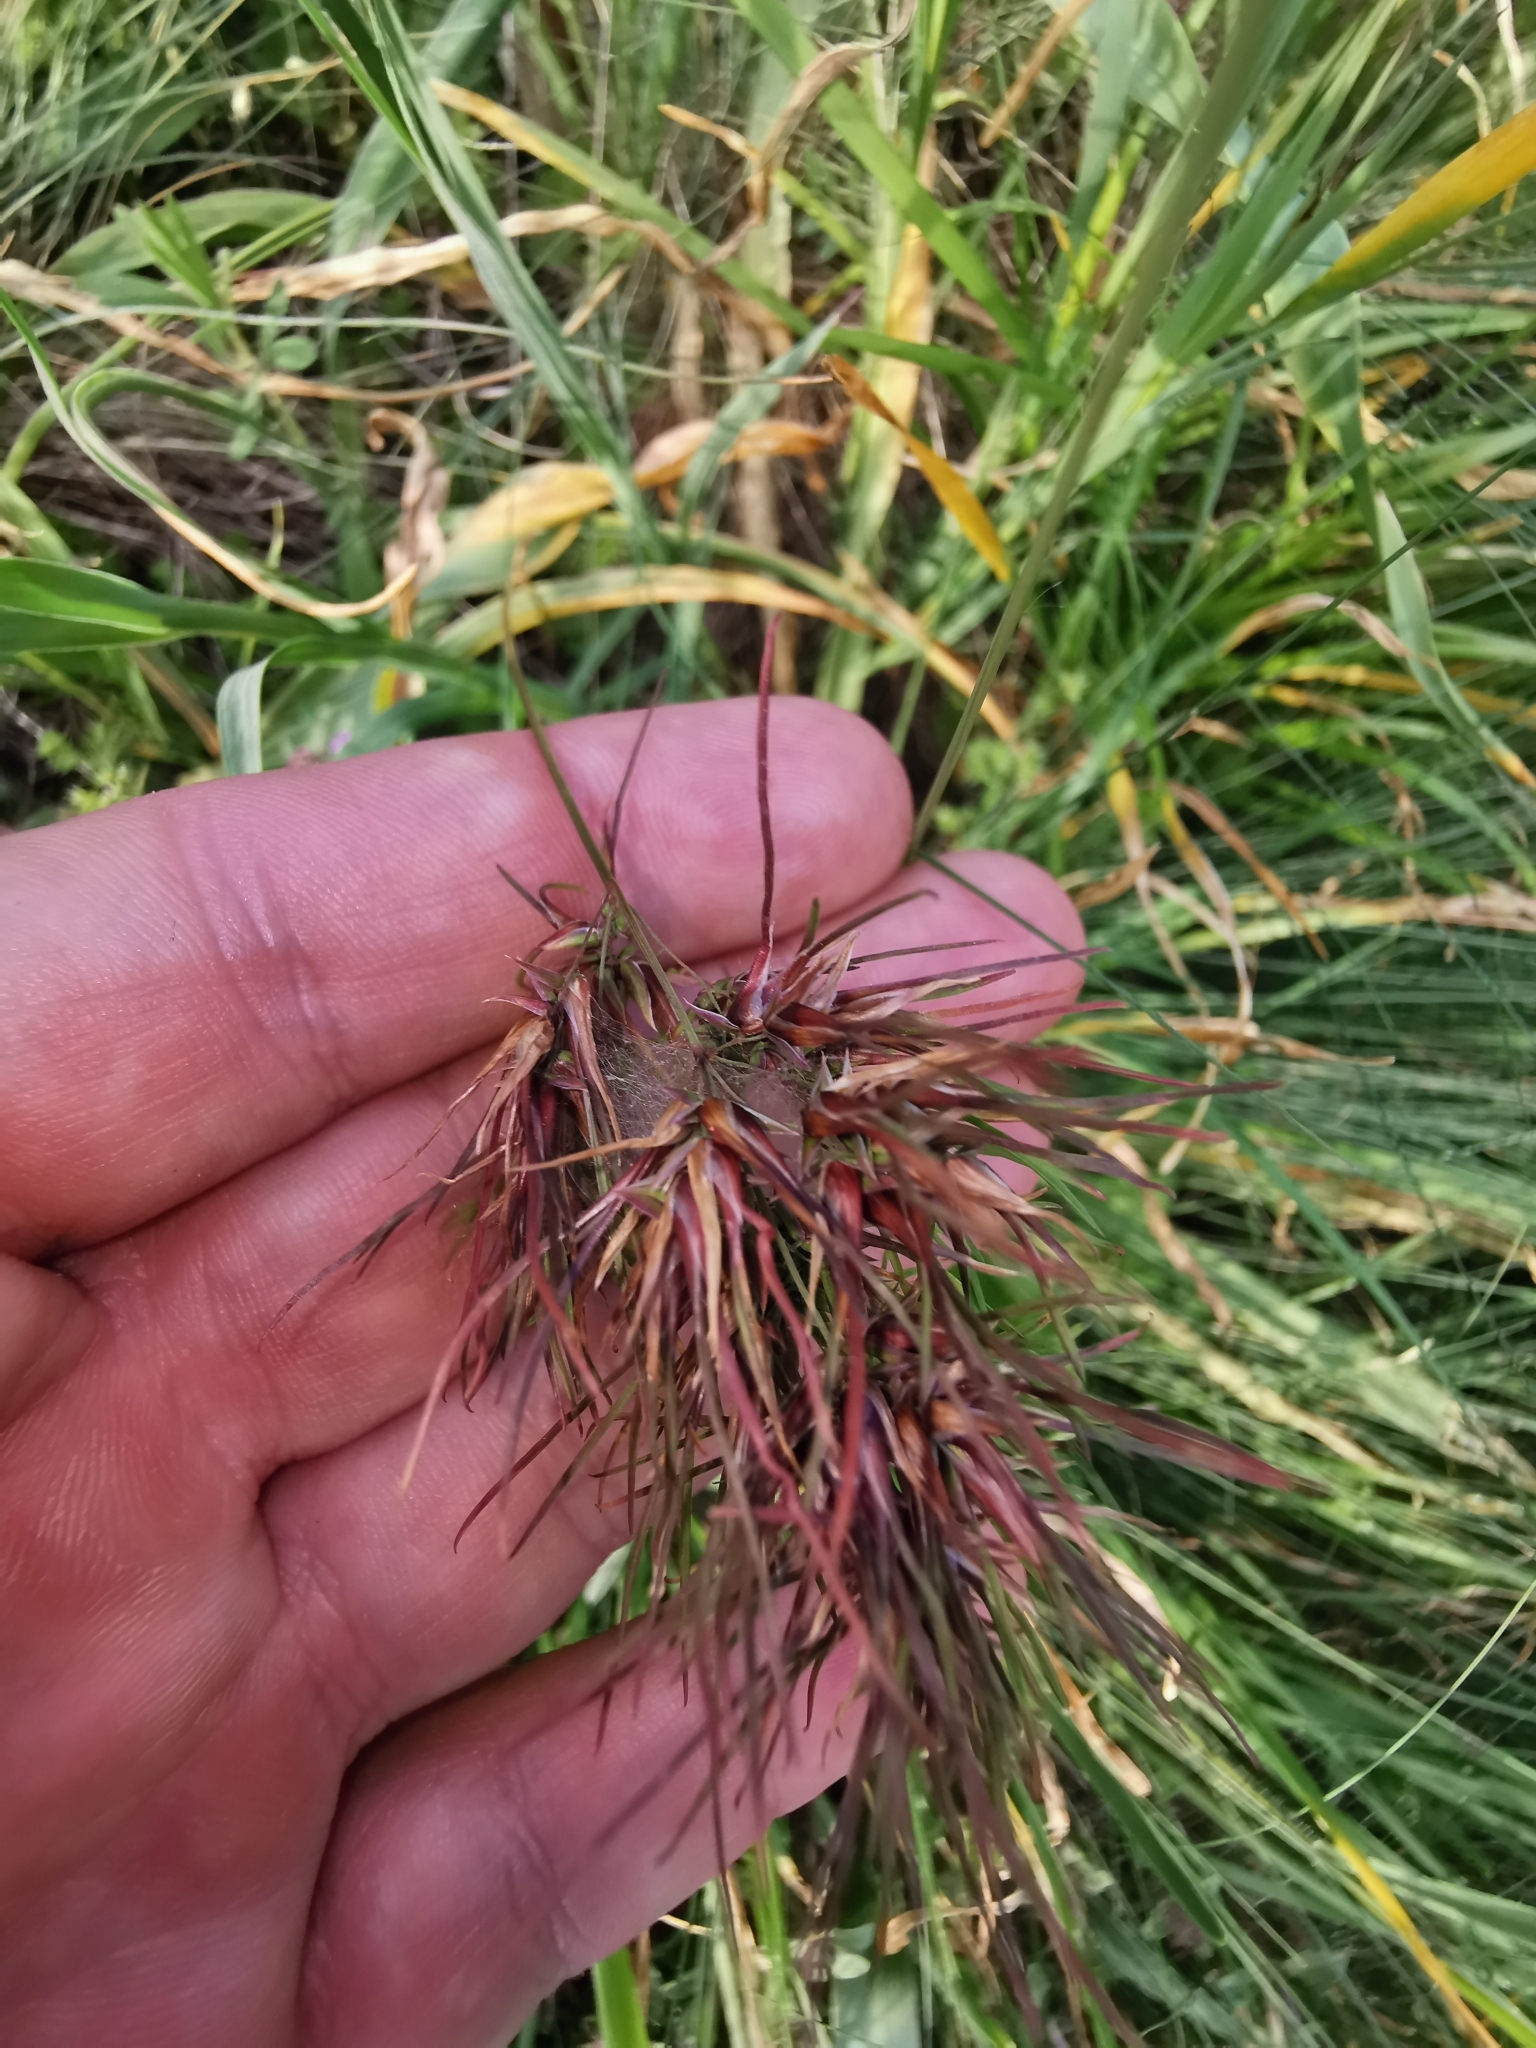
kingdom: Plantae
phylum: Tracheophyta
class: Liliopsida
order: Poales
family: Poaceae
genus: Poa
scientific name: Poa bulbosa
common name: Bulbous bluegrass
